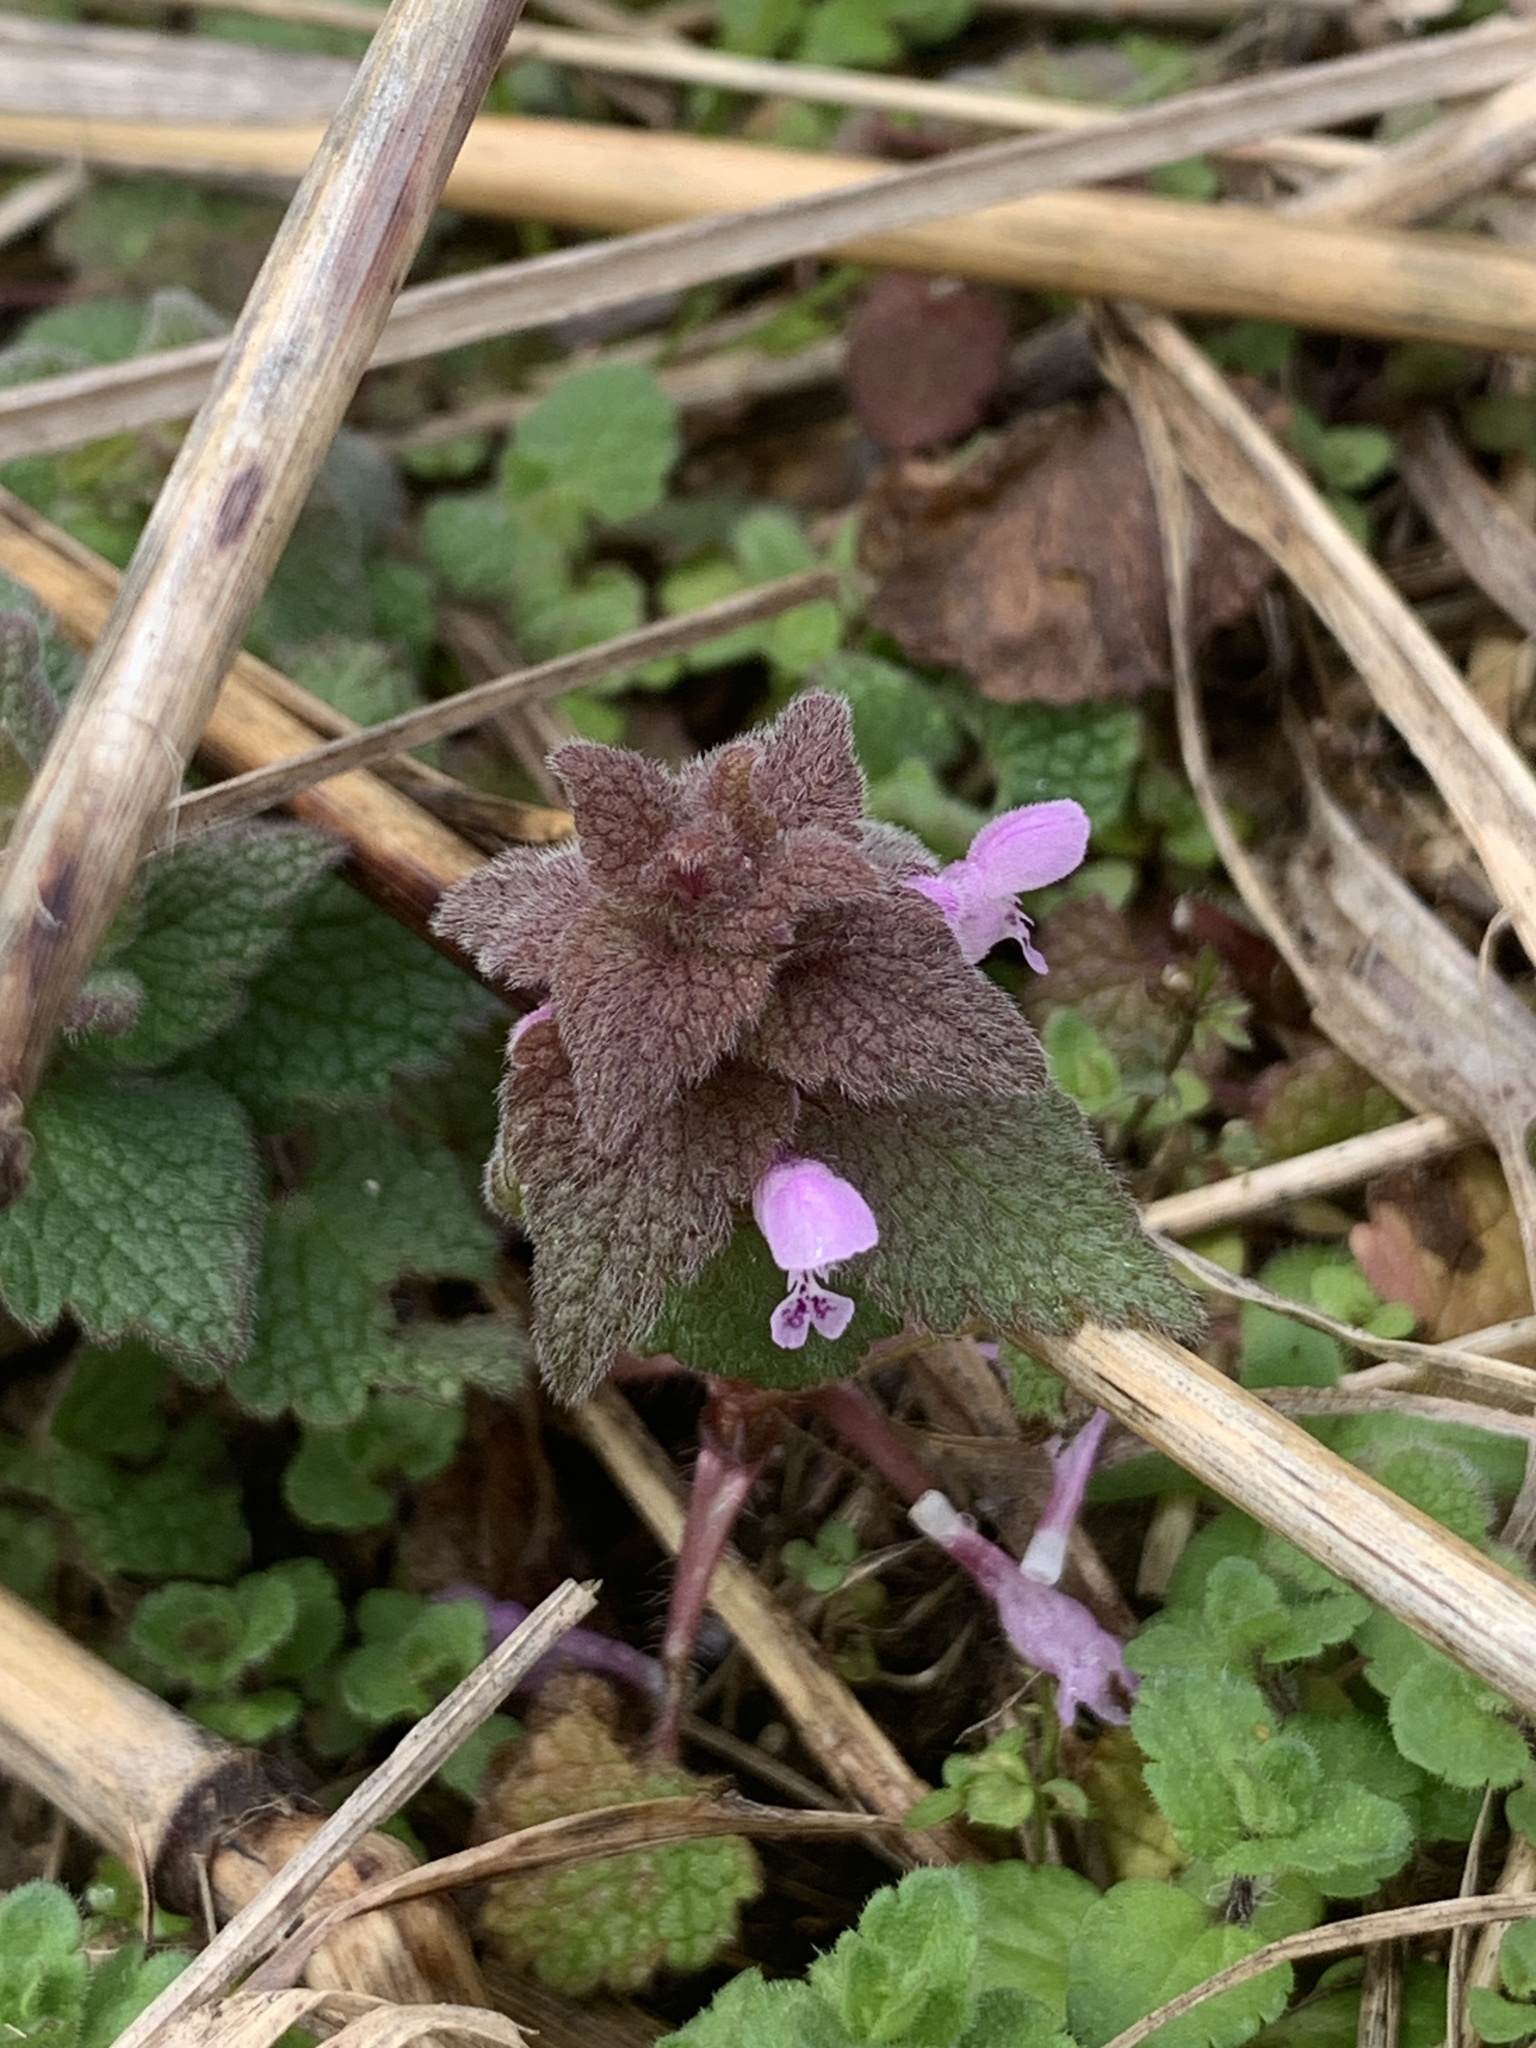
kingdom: Plantae
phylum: Tracheophyta
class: Magnoliopsida
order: Lamiales
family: Lamiaceae
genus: Lamium
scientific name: Lamium purpureum
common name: Red dead-nettle
